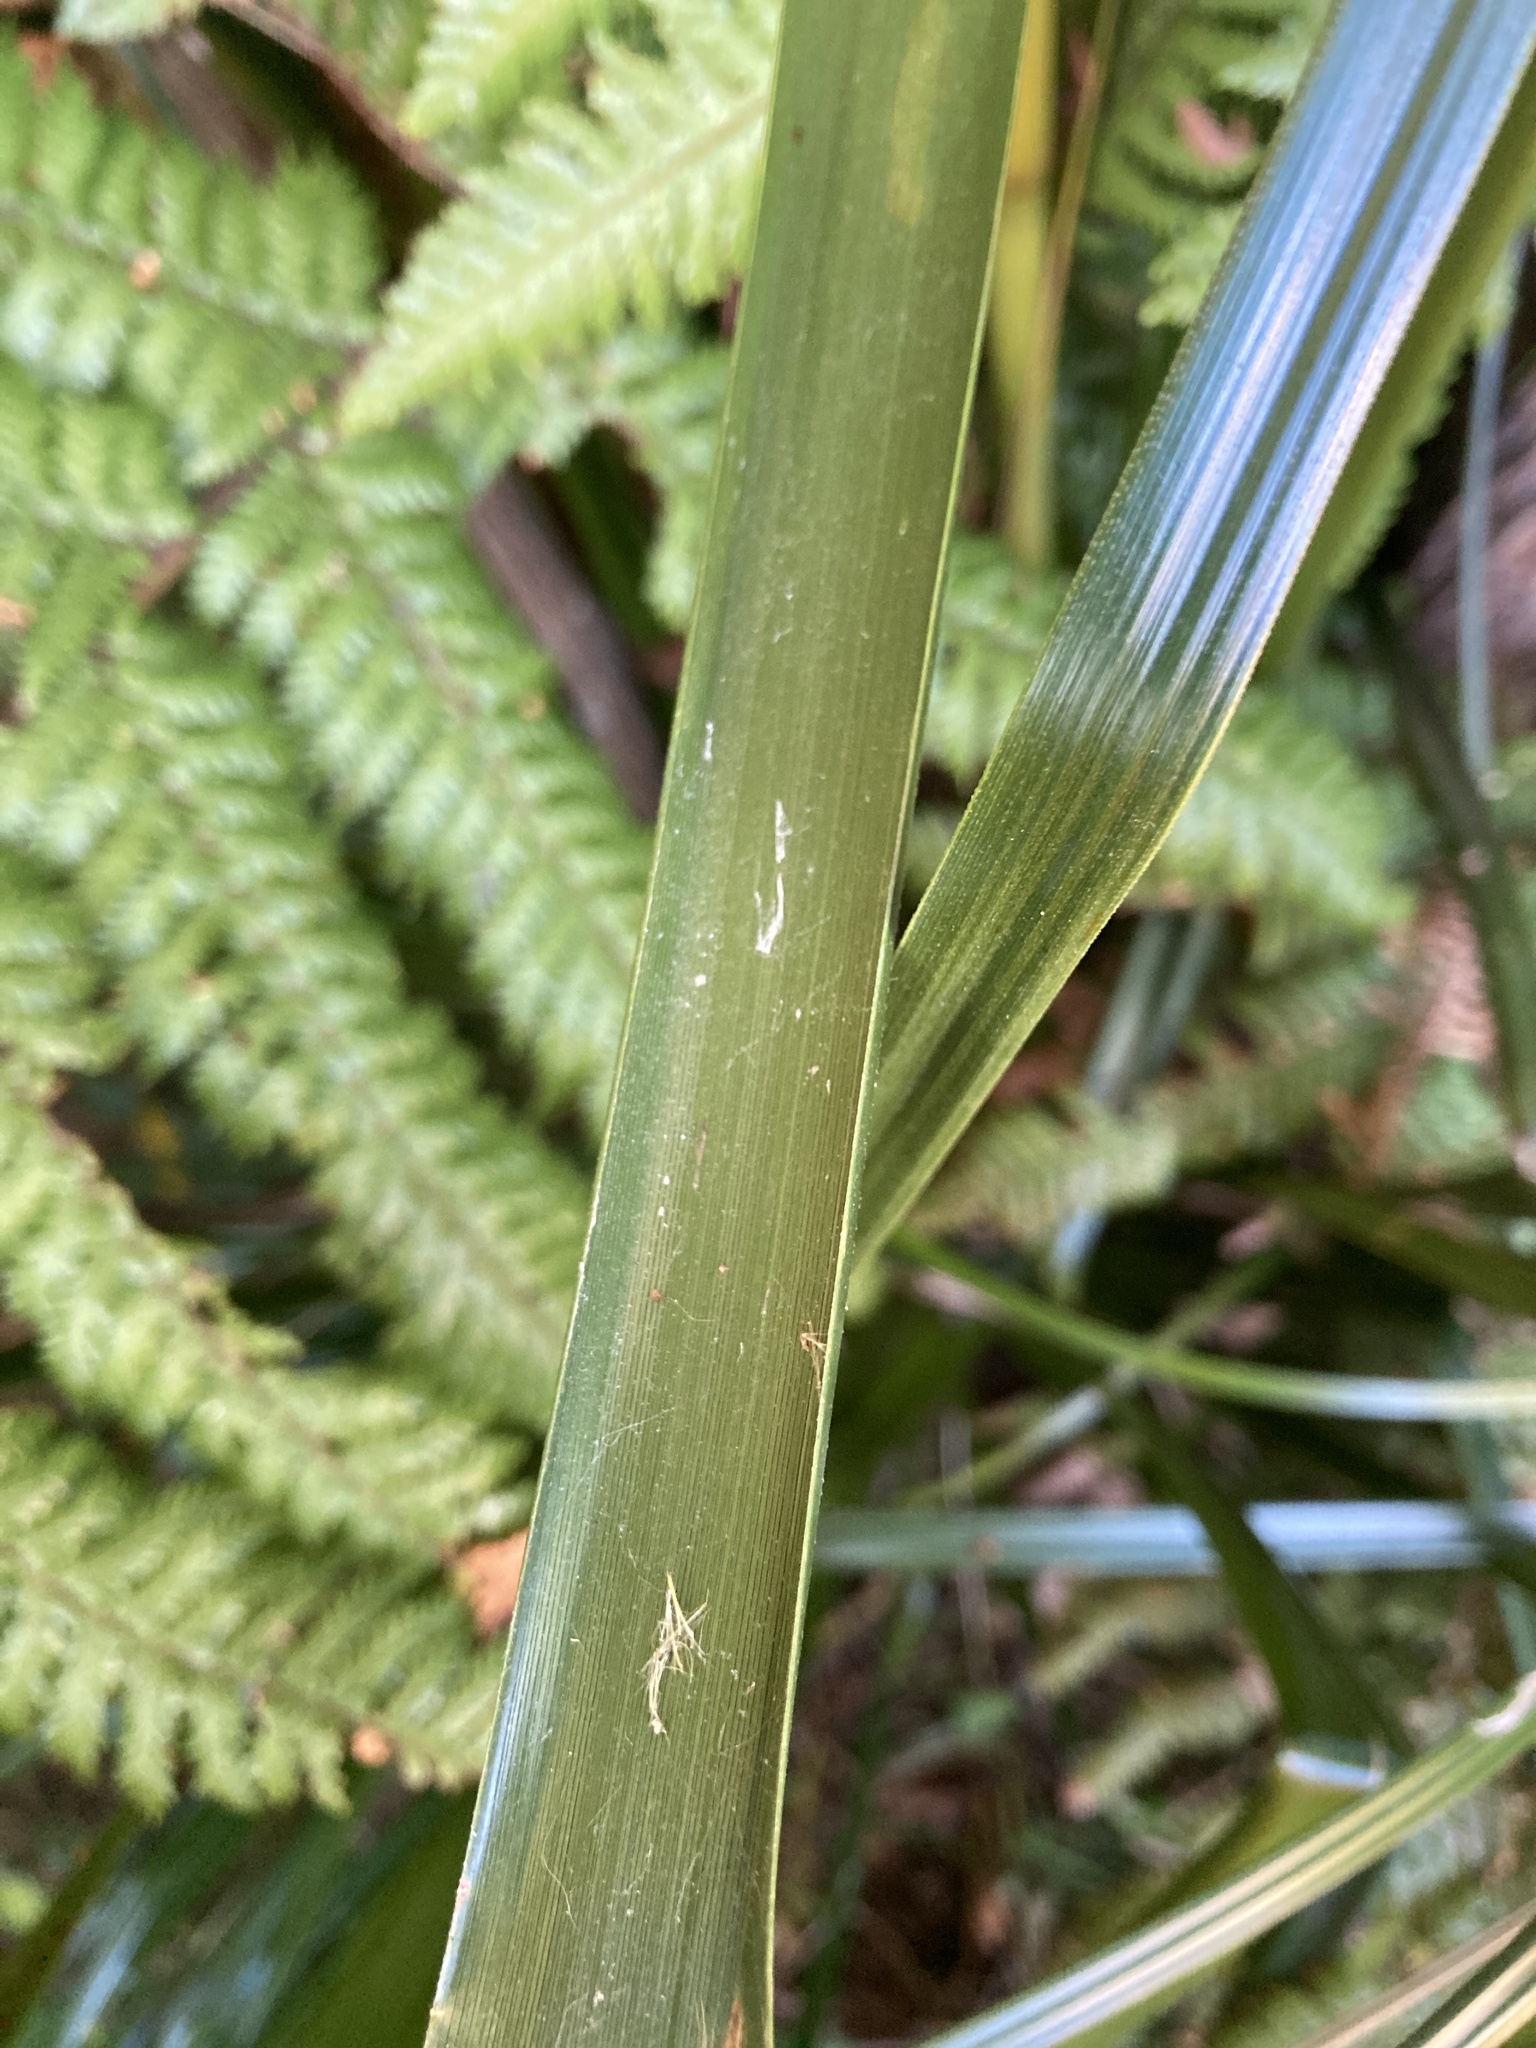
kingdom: Plantae
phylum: Tracheophyta
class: Liliopsida
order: Poales
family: Cyperaceae
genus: Gahnia
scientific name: Gahnia xanthocarpa
